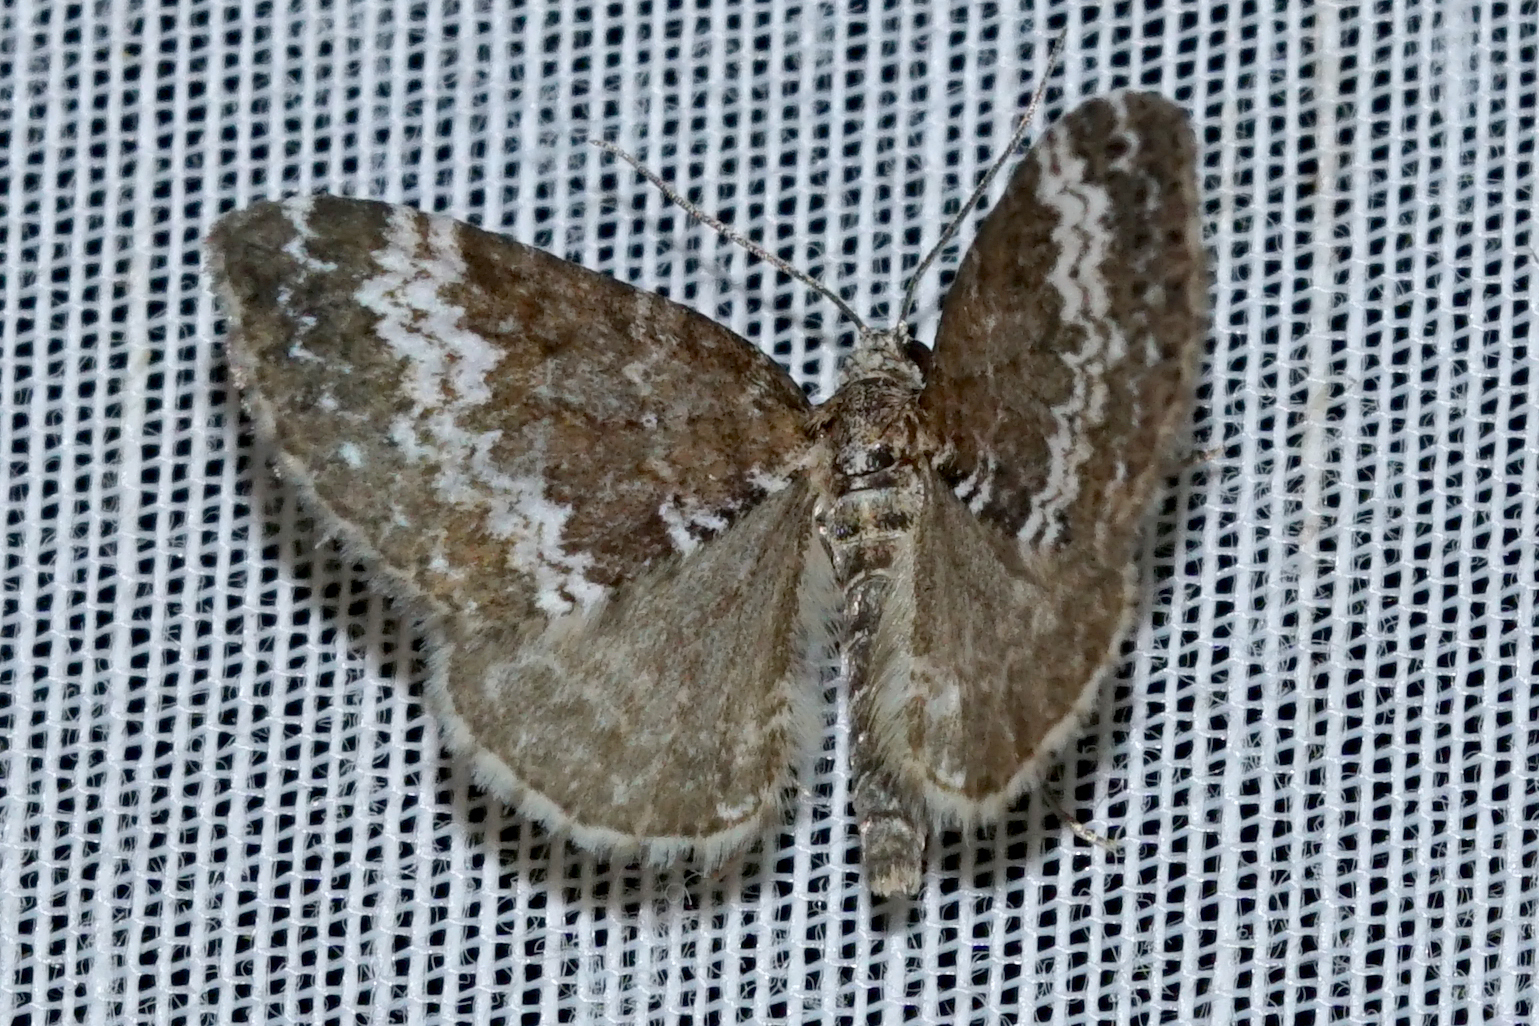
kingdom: Animalia
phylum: Arthropoda
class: Insecta
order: Lepidoptera
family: Geometridae
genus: Perizoma
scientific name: Perizoma alchemillata
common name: Small rivulet
